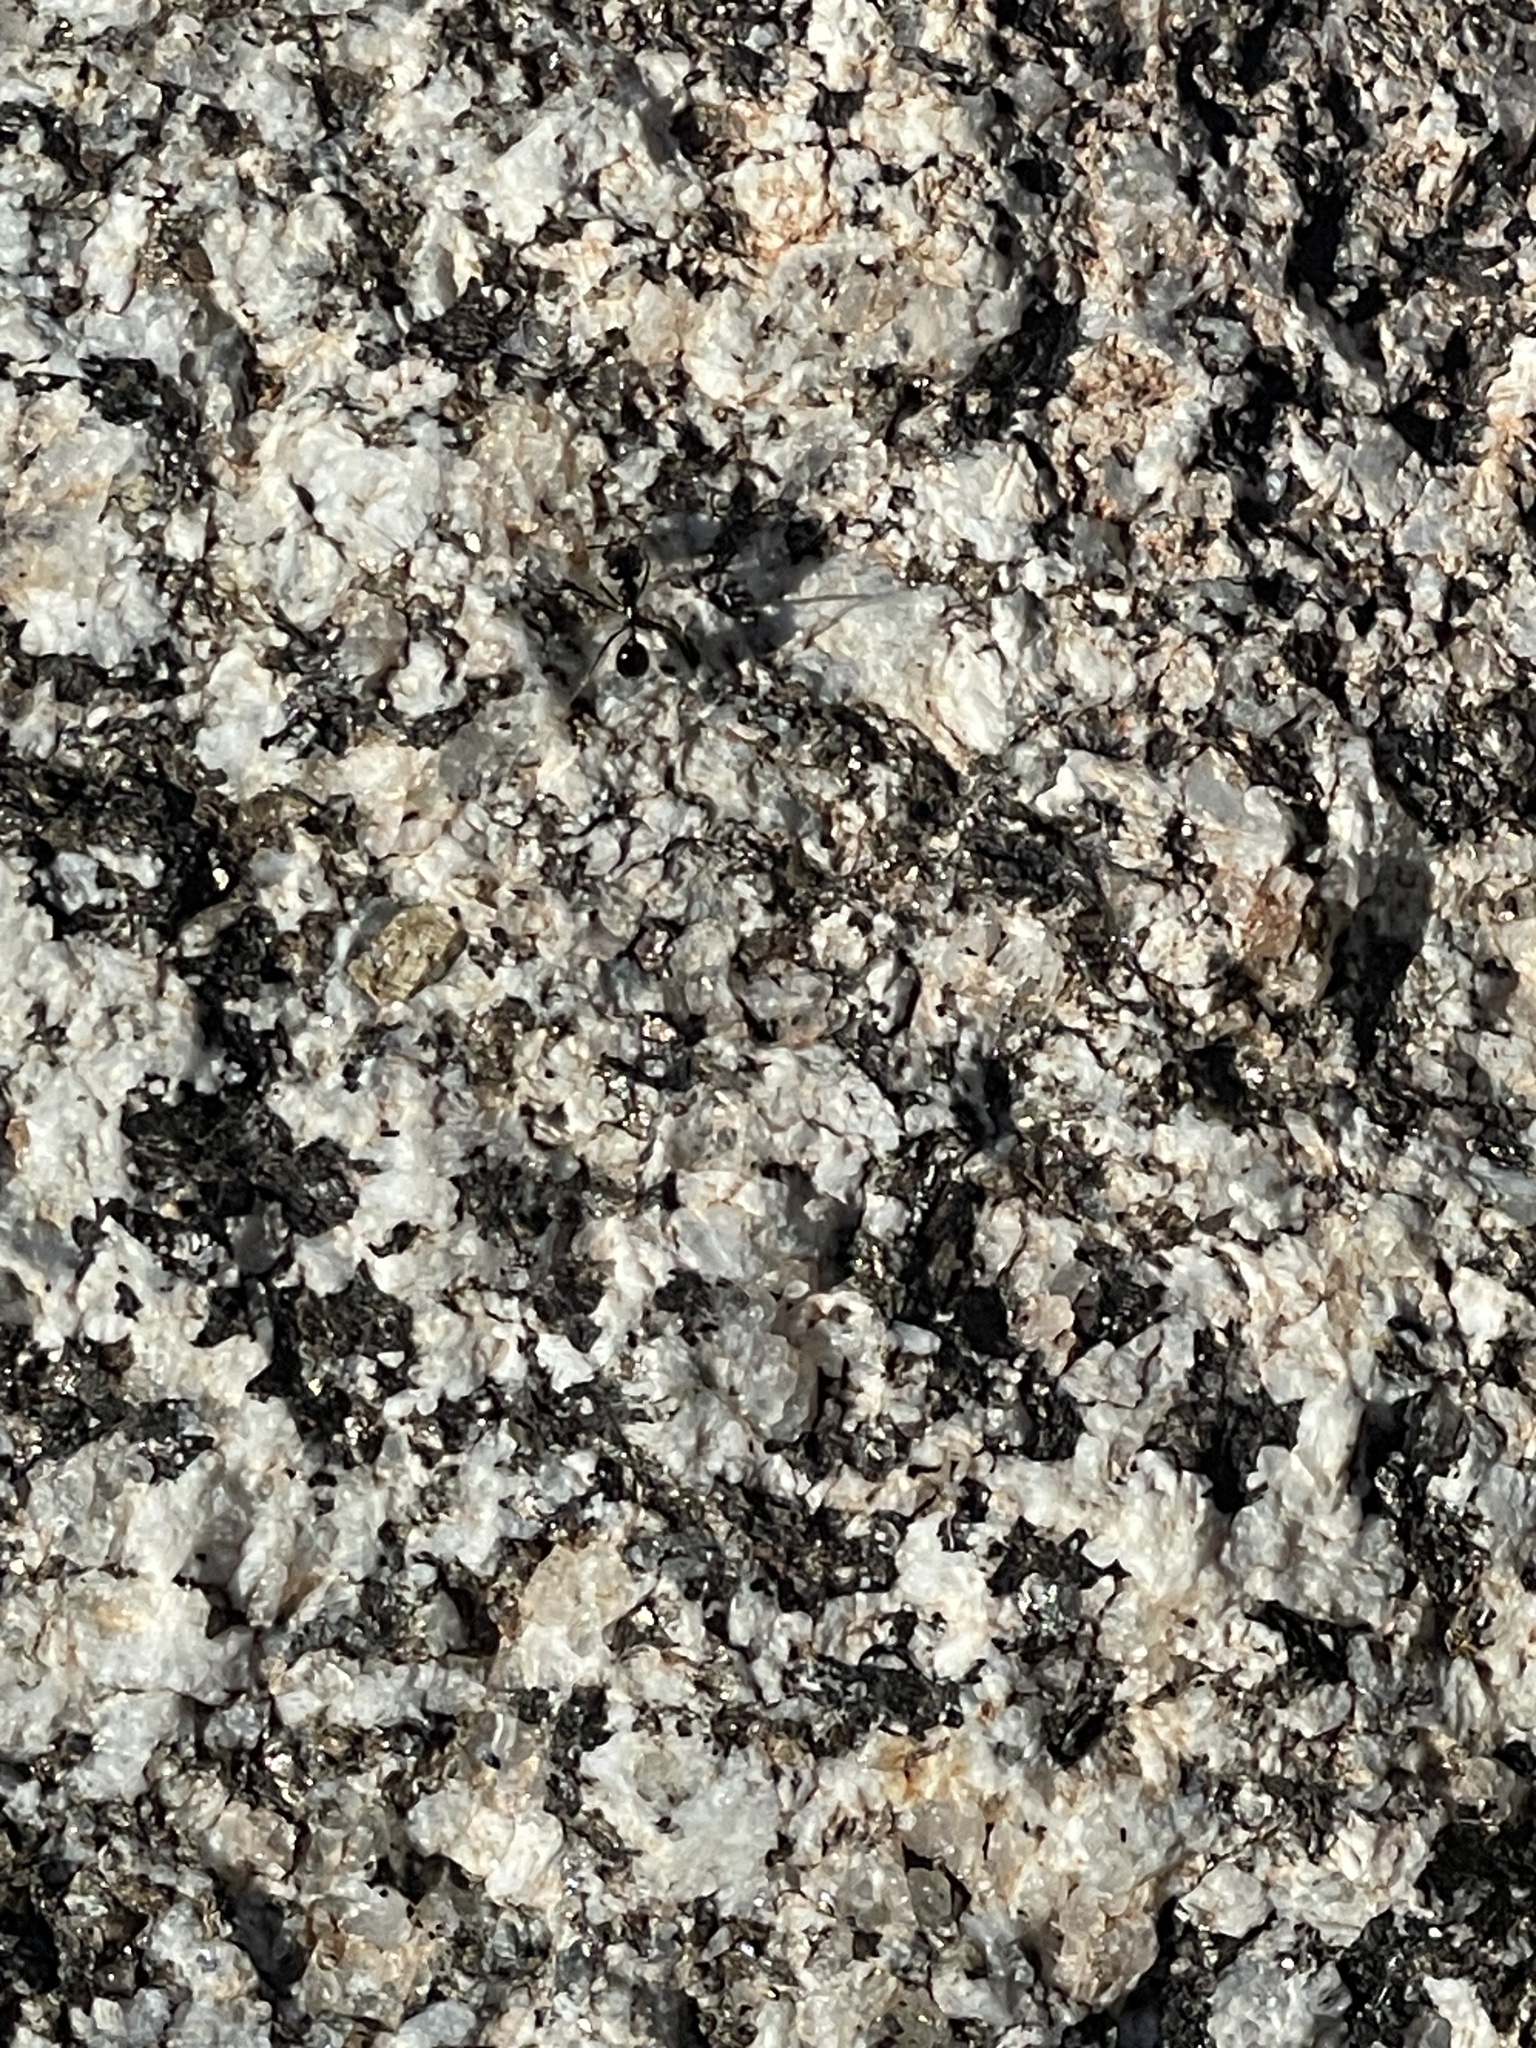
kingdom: Animalia
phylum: Arthropoda
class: Insecta
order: Hymenoptera
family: Formicidae
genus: Messor
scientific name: Messor pergandei
